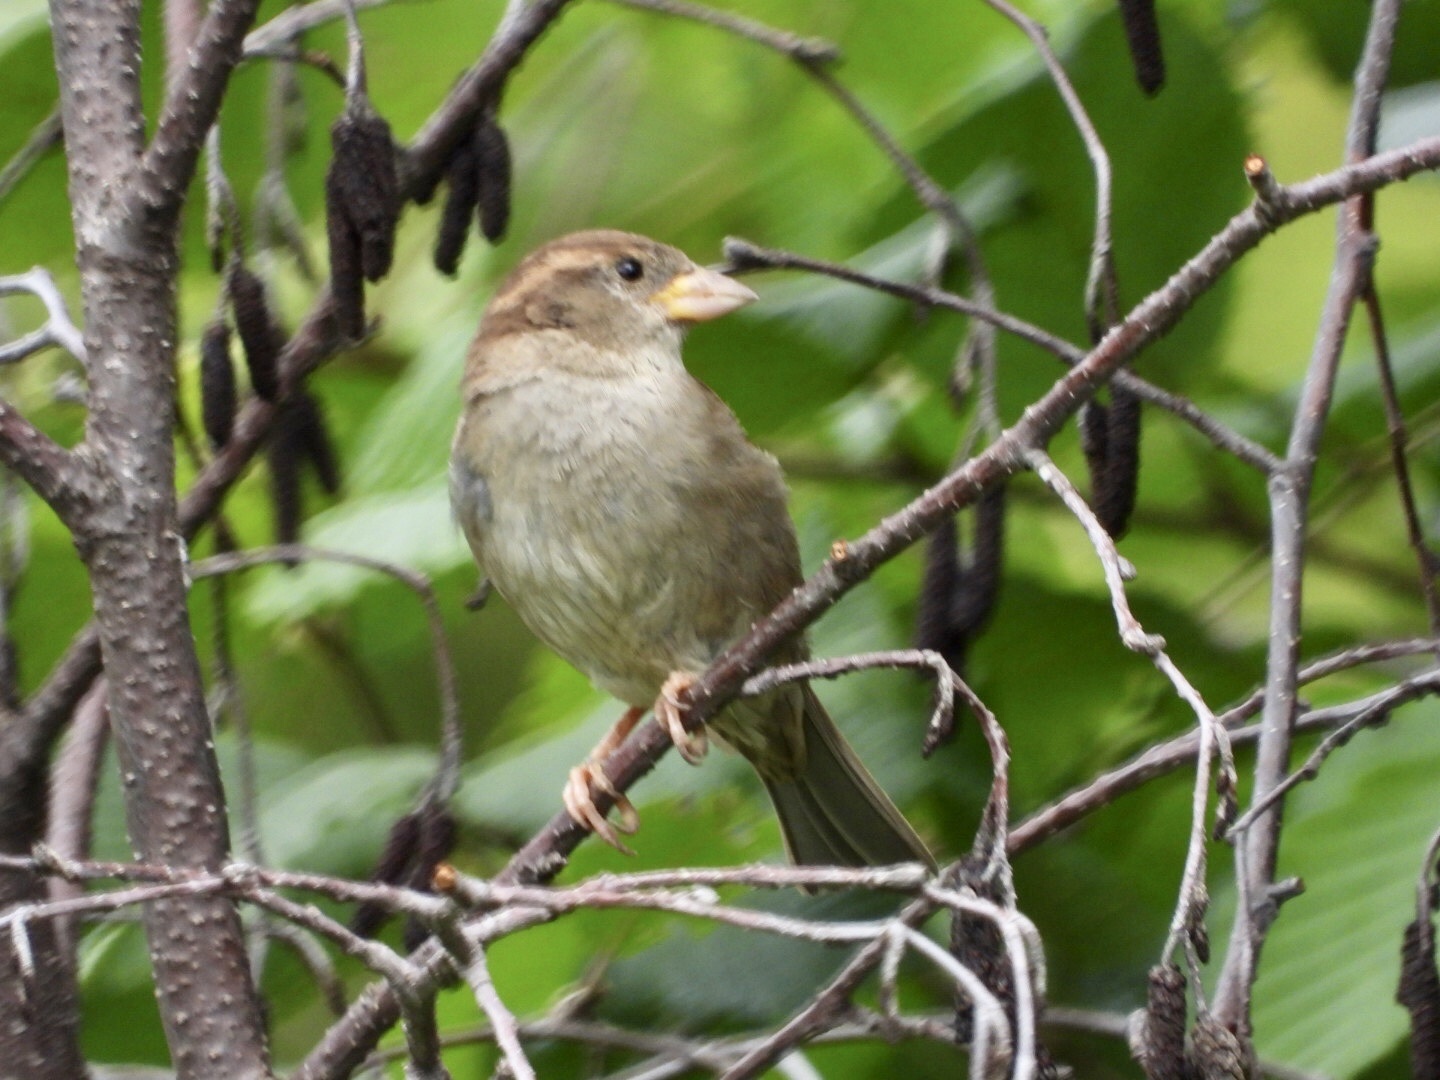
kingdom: Animalia
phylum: Chordata
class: Aves
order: Passeriformes
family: Passeridae
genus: Passer
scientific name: Passer domesticus
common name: House sparrow
